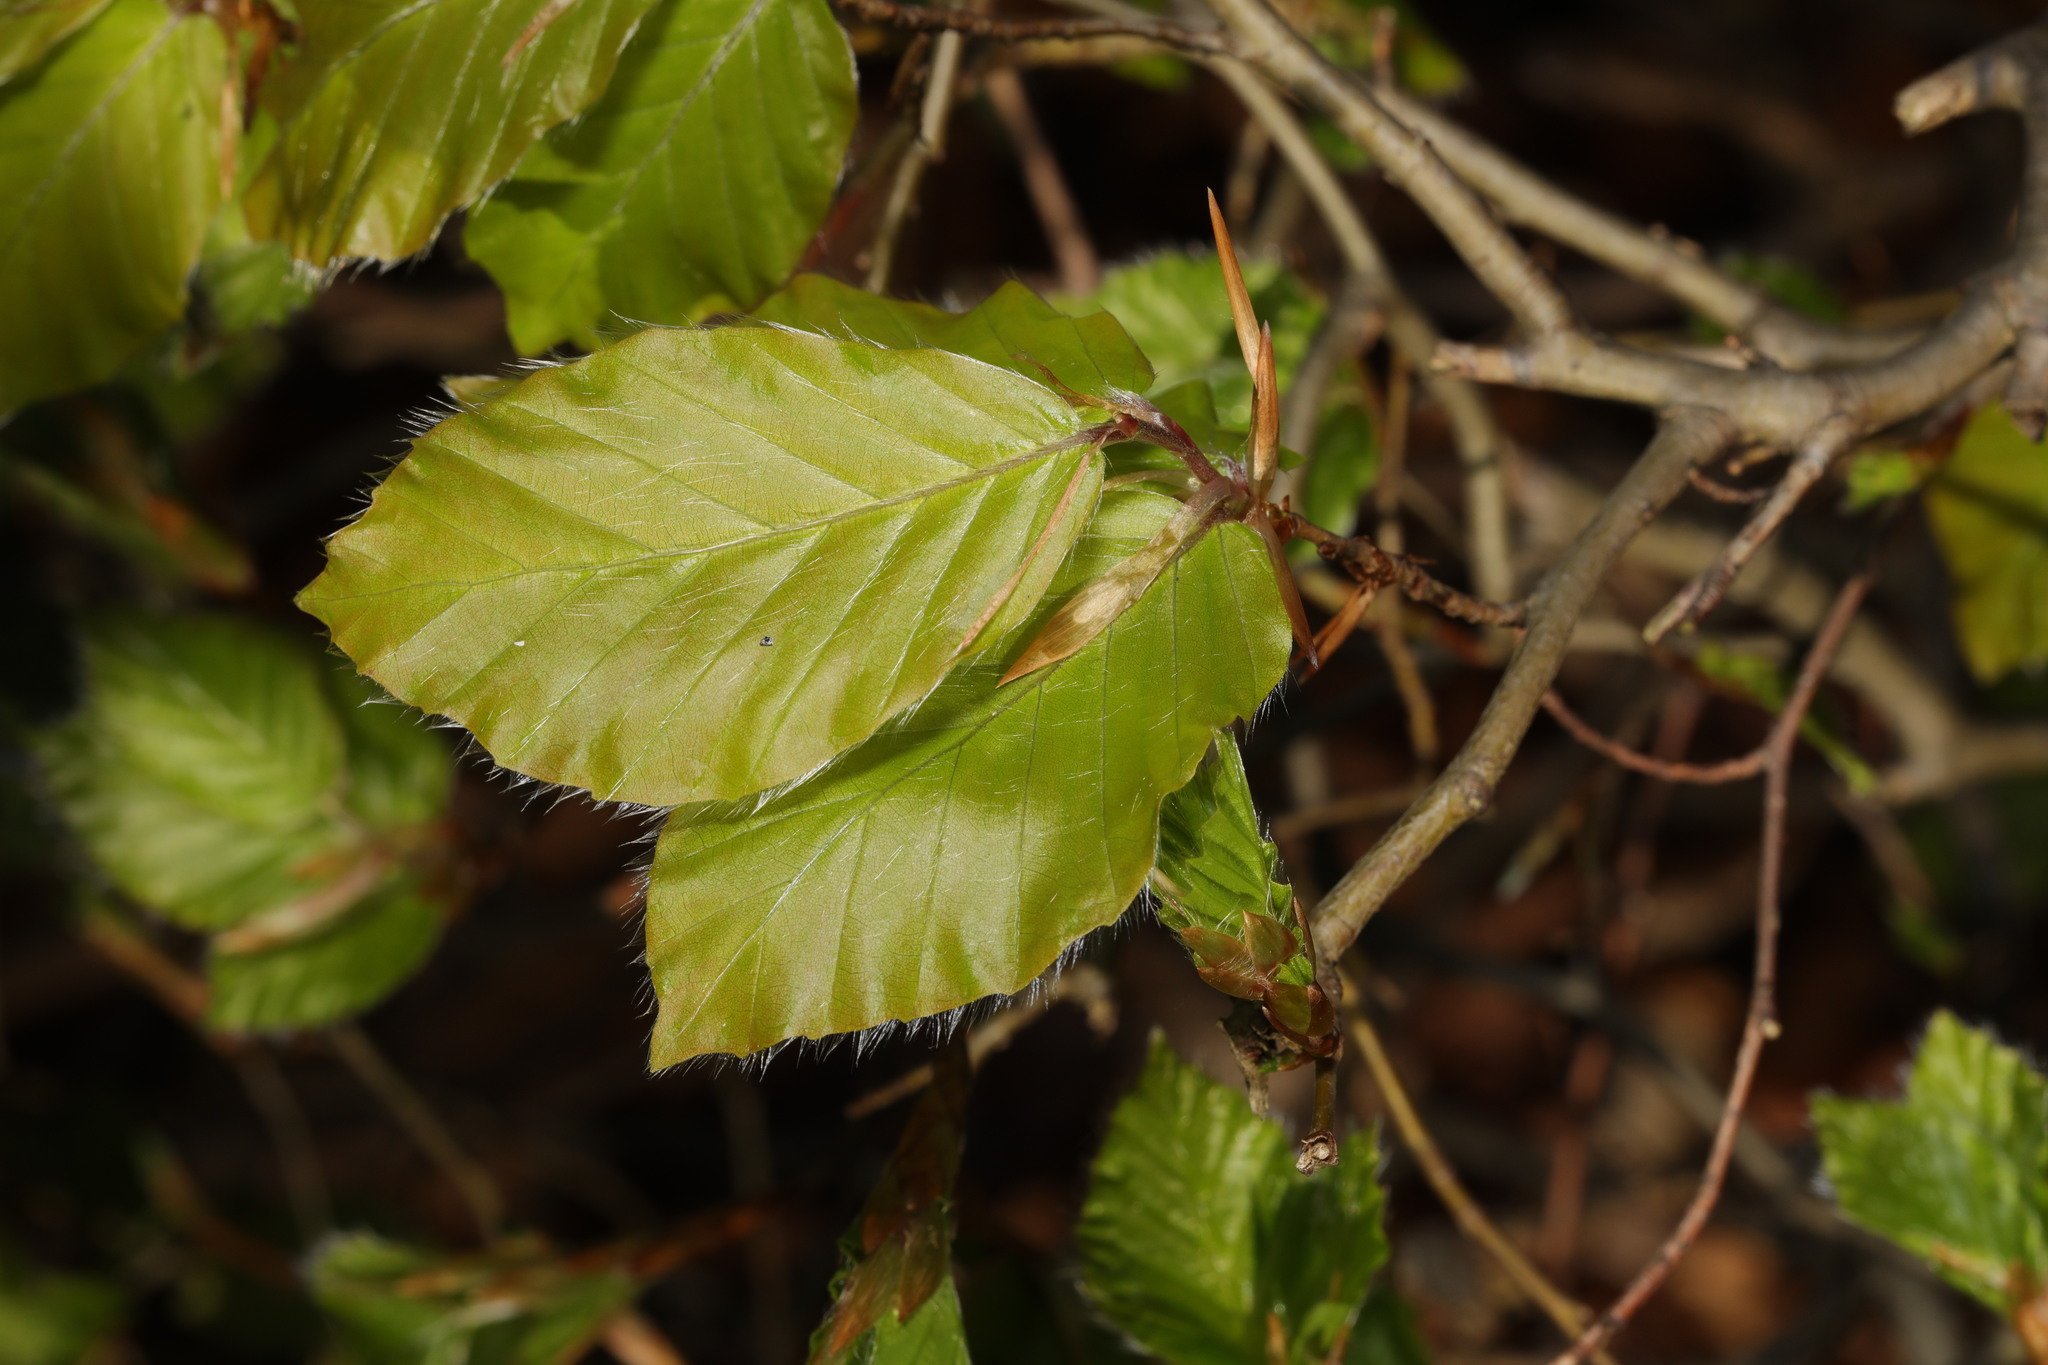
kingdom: Plantae
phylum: Tracheophyta
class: Magnoliopsida
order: Fagales
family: Fagaceae
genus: Fagus
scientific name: Fagus sylvatica
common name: Beech
